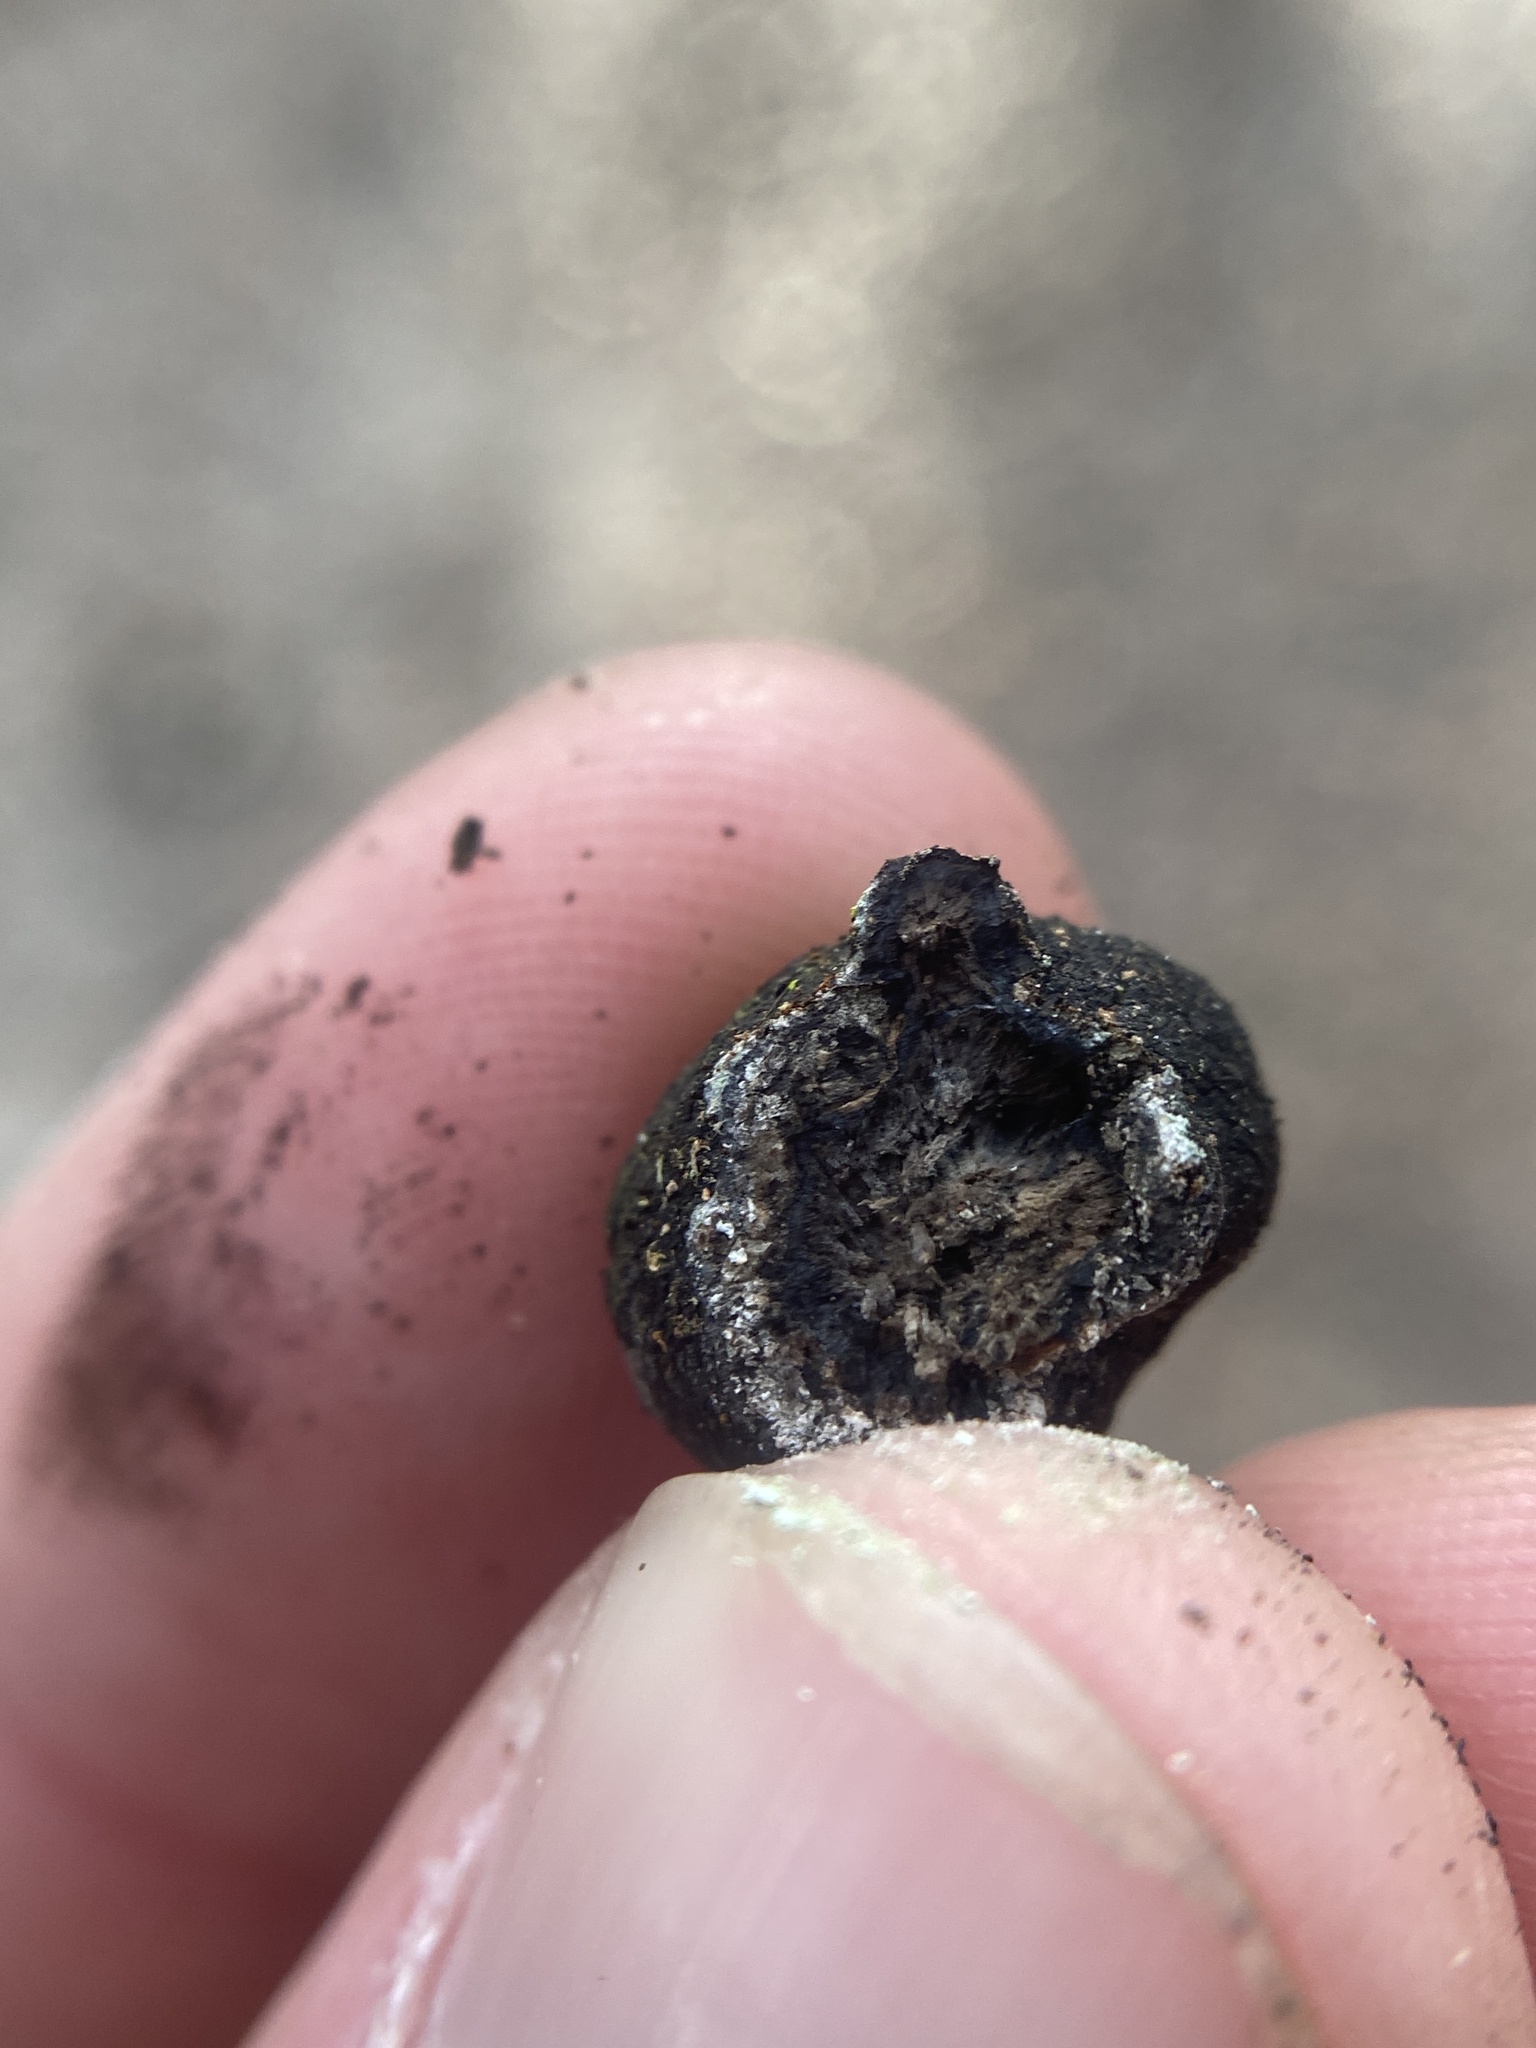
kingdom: Fungi
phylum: Ascomycota
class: Sordariomycetes
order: Xylariales
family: Hypoxylaceae
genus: Annulohypoxylon
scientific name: Annulohypoxylon thouarsianum
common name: Cramp balls
